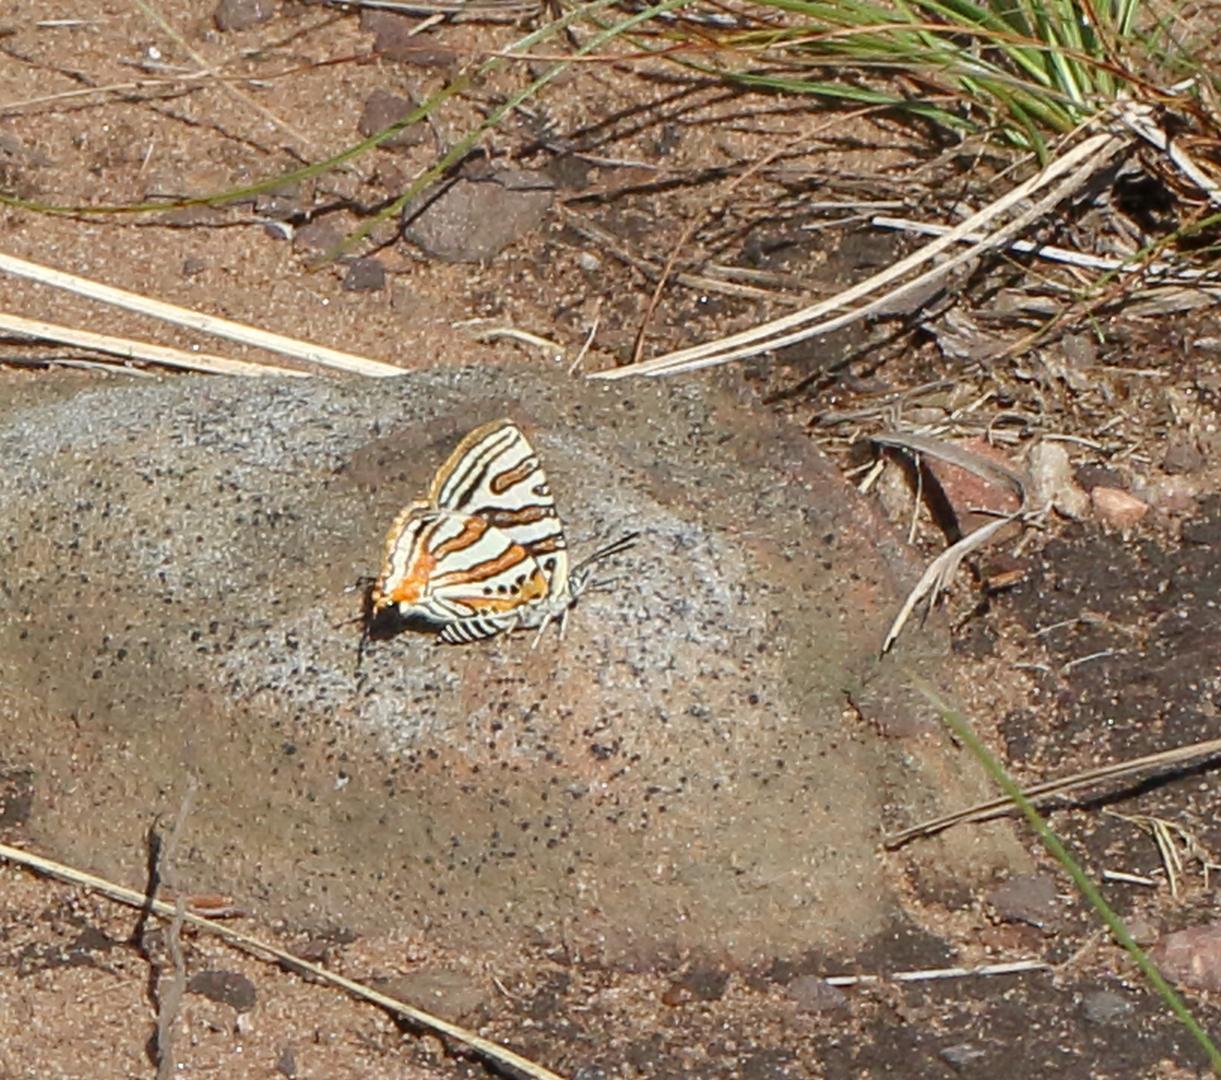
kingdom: Animalia
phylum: Arthropoda
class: Insecta
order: Lepidoptera
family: Lycaenidae
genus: Cigaritis
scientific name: Cigaritis mozambica
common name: Mozambique bar
